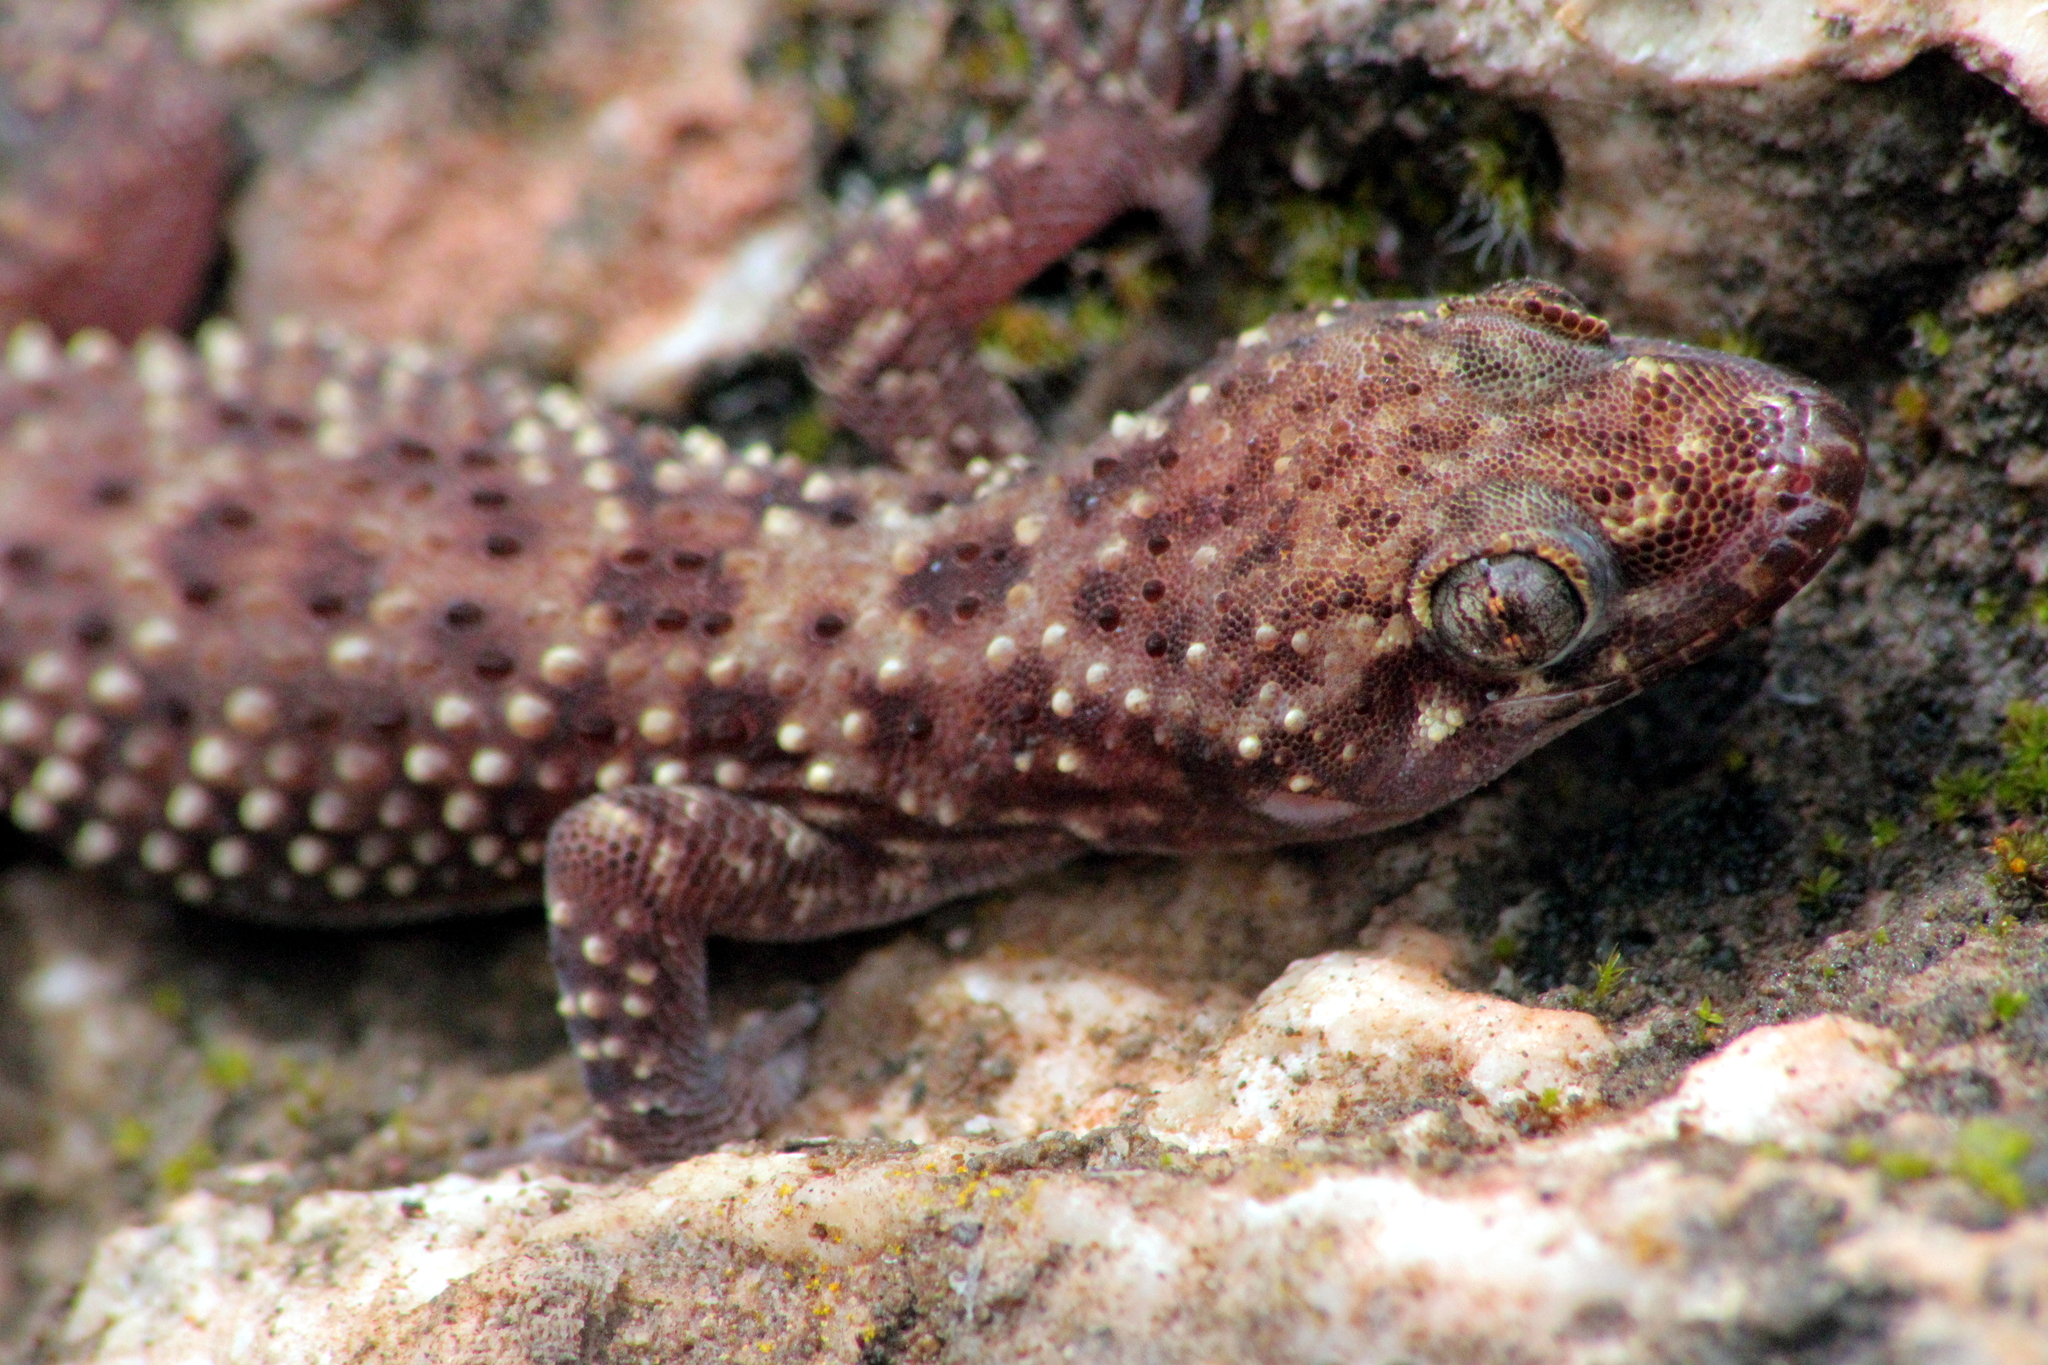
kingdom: Animalia
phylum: Chordata
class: Squamata
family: Gekkonidae
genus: Hemidactylus
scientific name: Hemidactylus turcicus
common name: Turkish gecko
